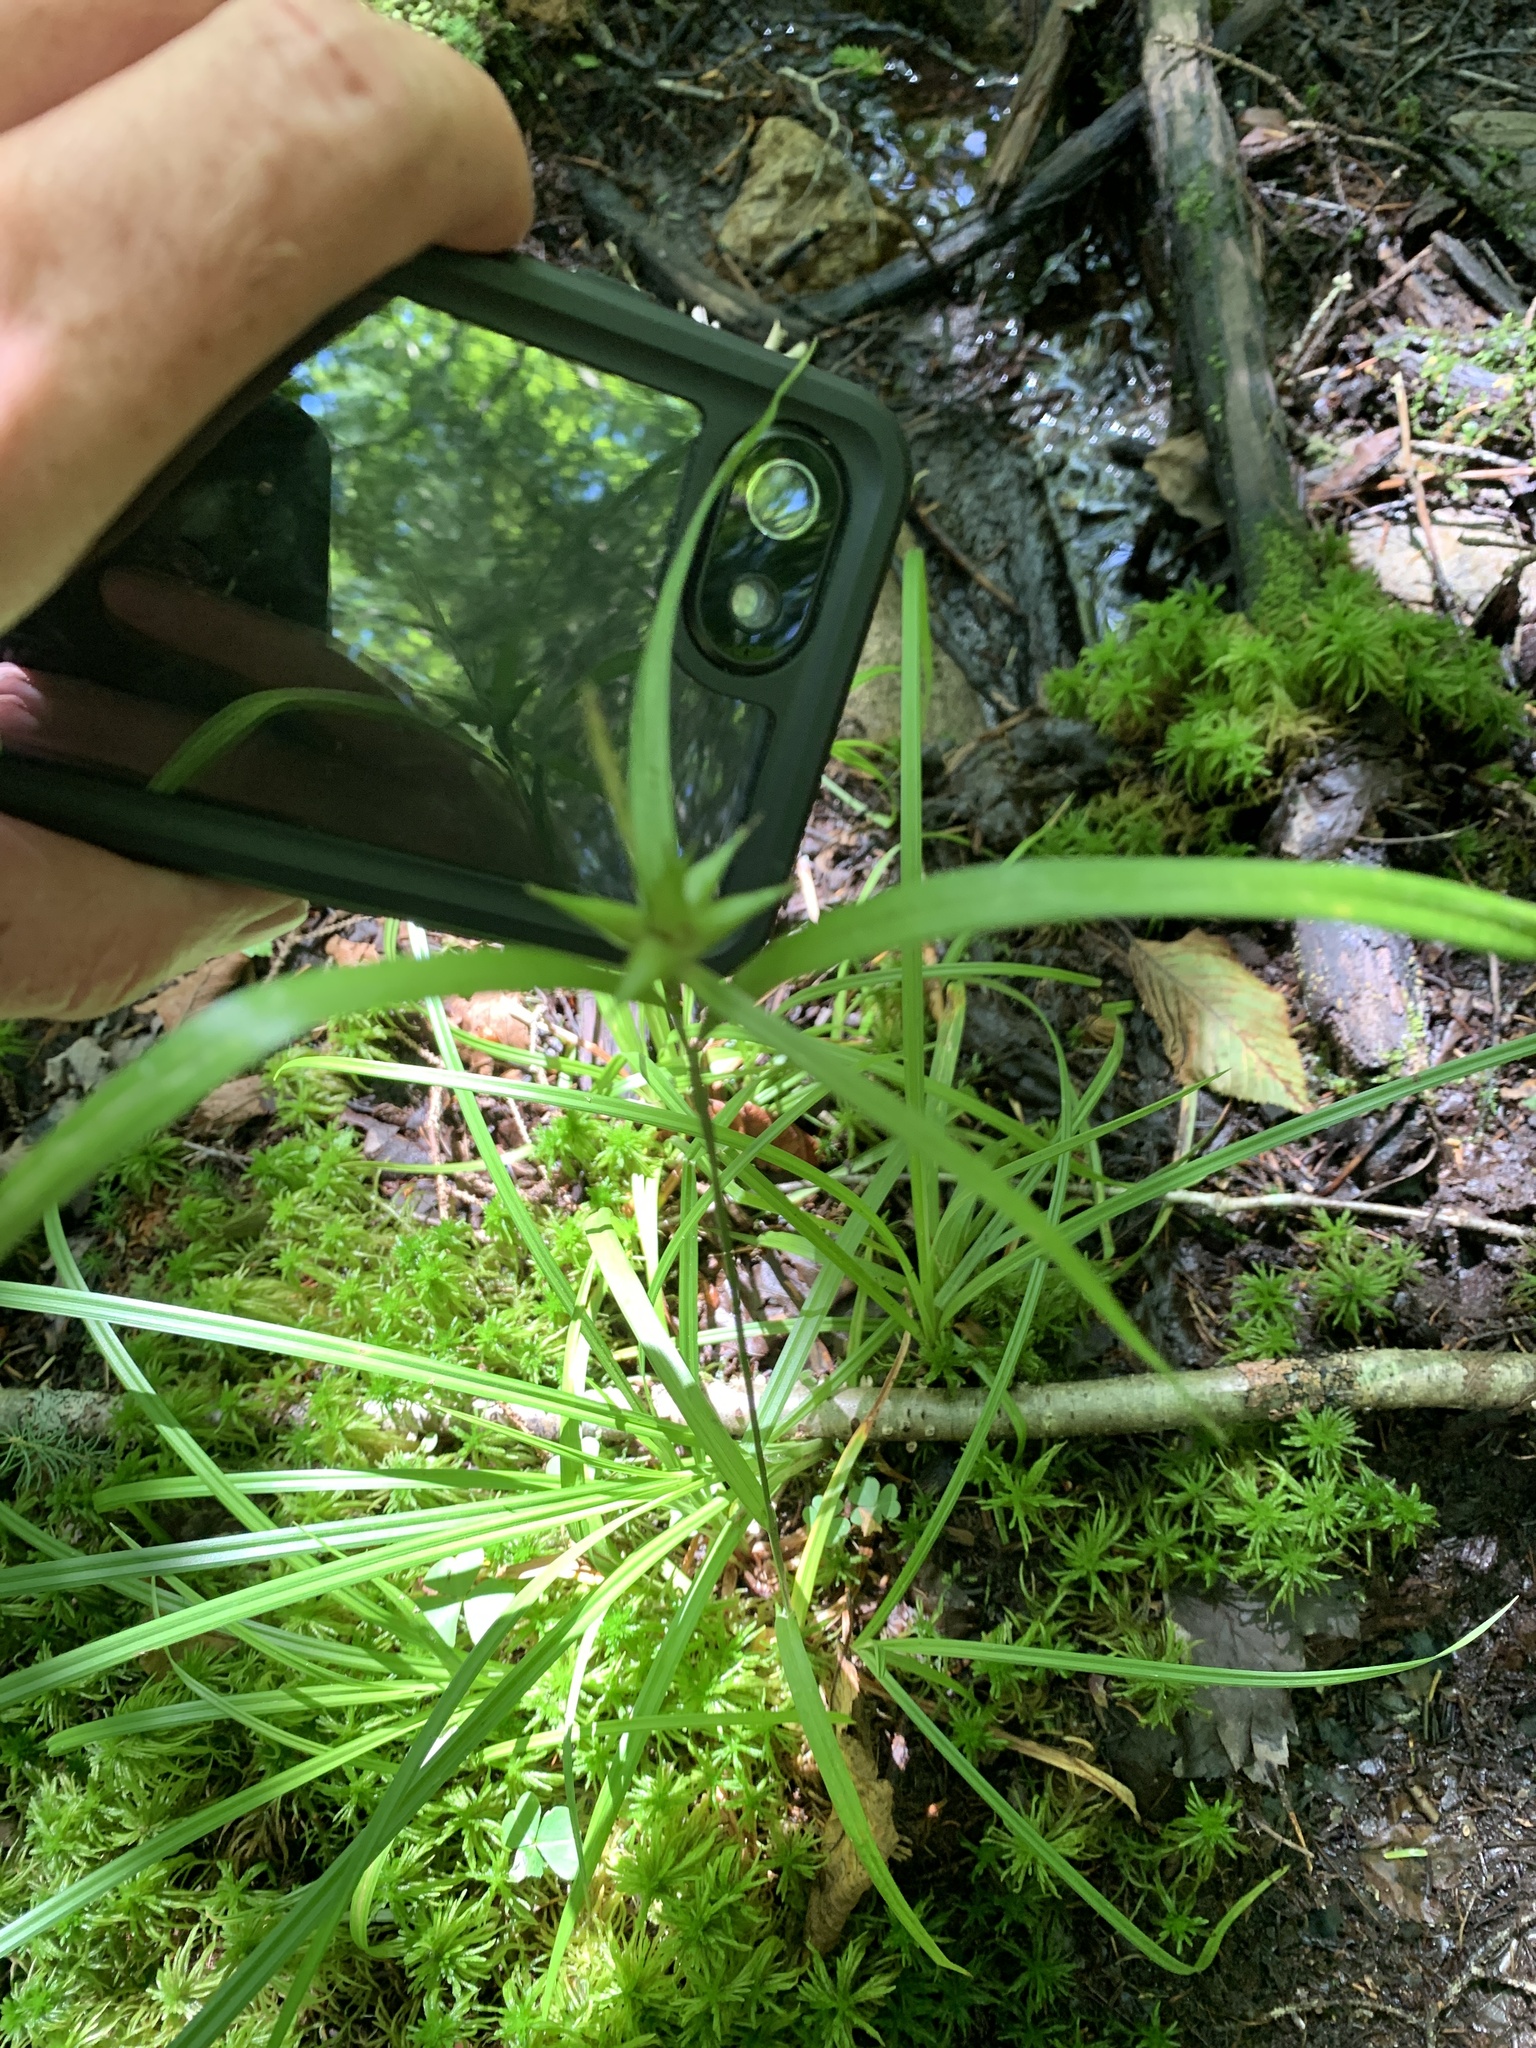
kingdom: Plantae
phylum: Tracheophyta
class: Liliopsida
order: Poales
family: Cyperaceae
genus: Carex
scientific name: Carex intumescens
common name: Greater bladder sedge
